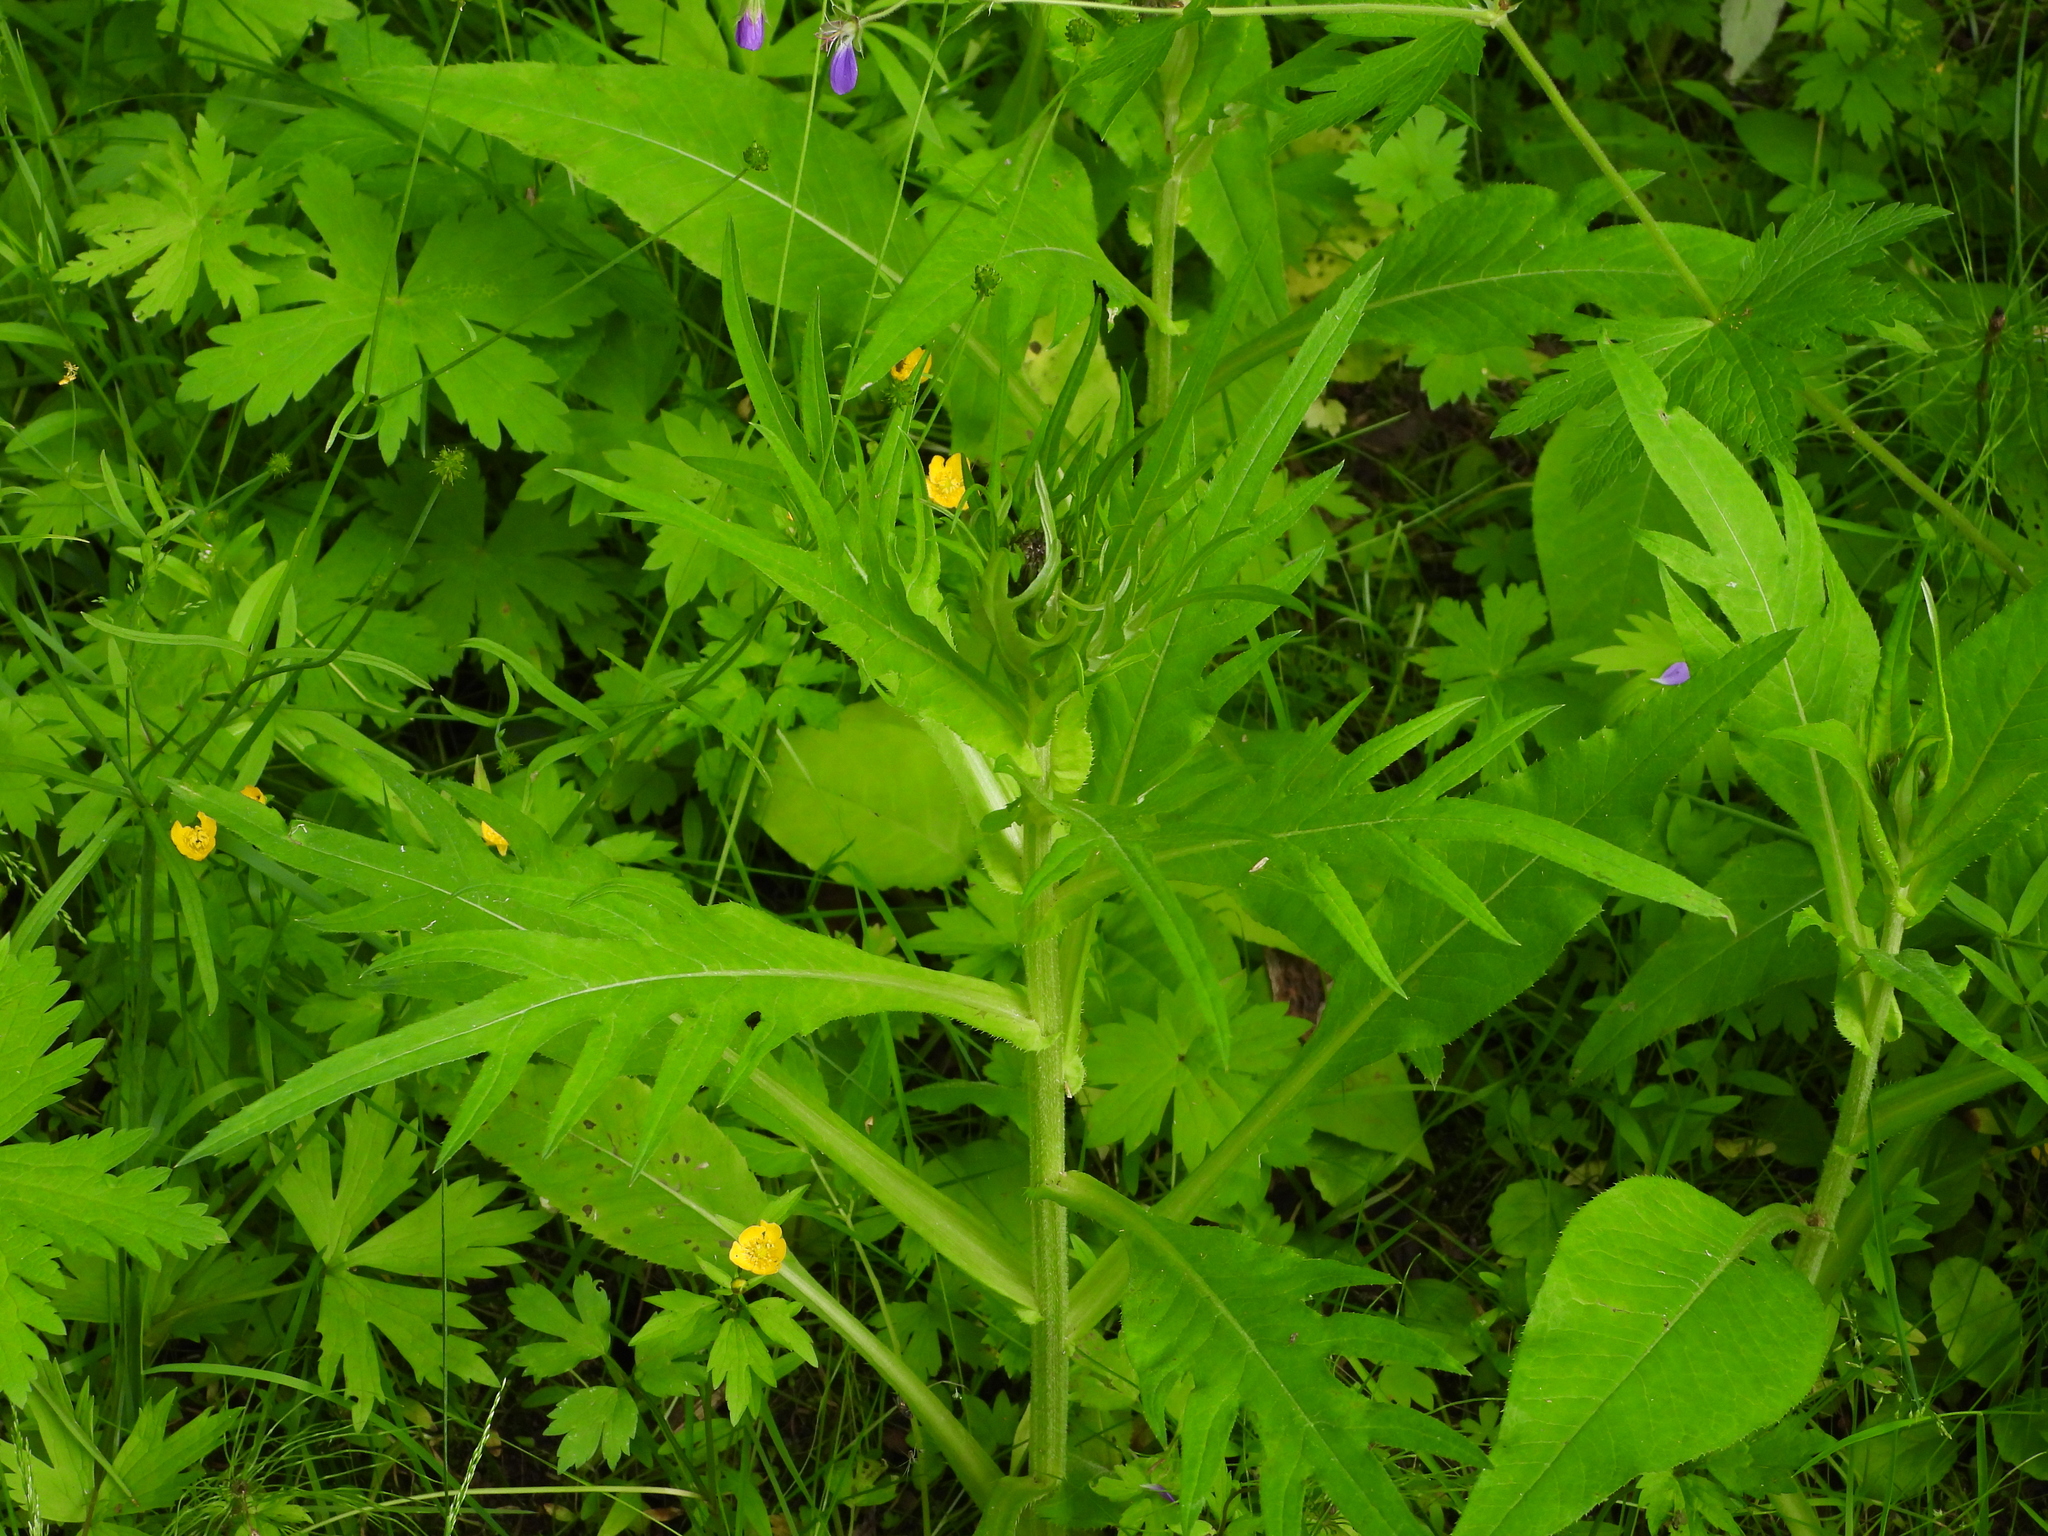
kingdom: Plantae
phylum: Tracheophyta
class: Magnoliopsida
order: Asterales
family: Asteraceae
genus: Cirsium
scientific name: Cirsium heterophyllum
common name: Melancholy thistle
